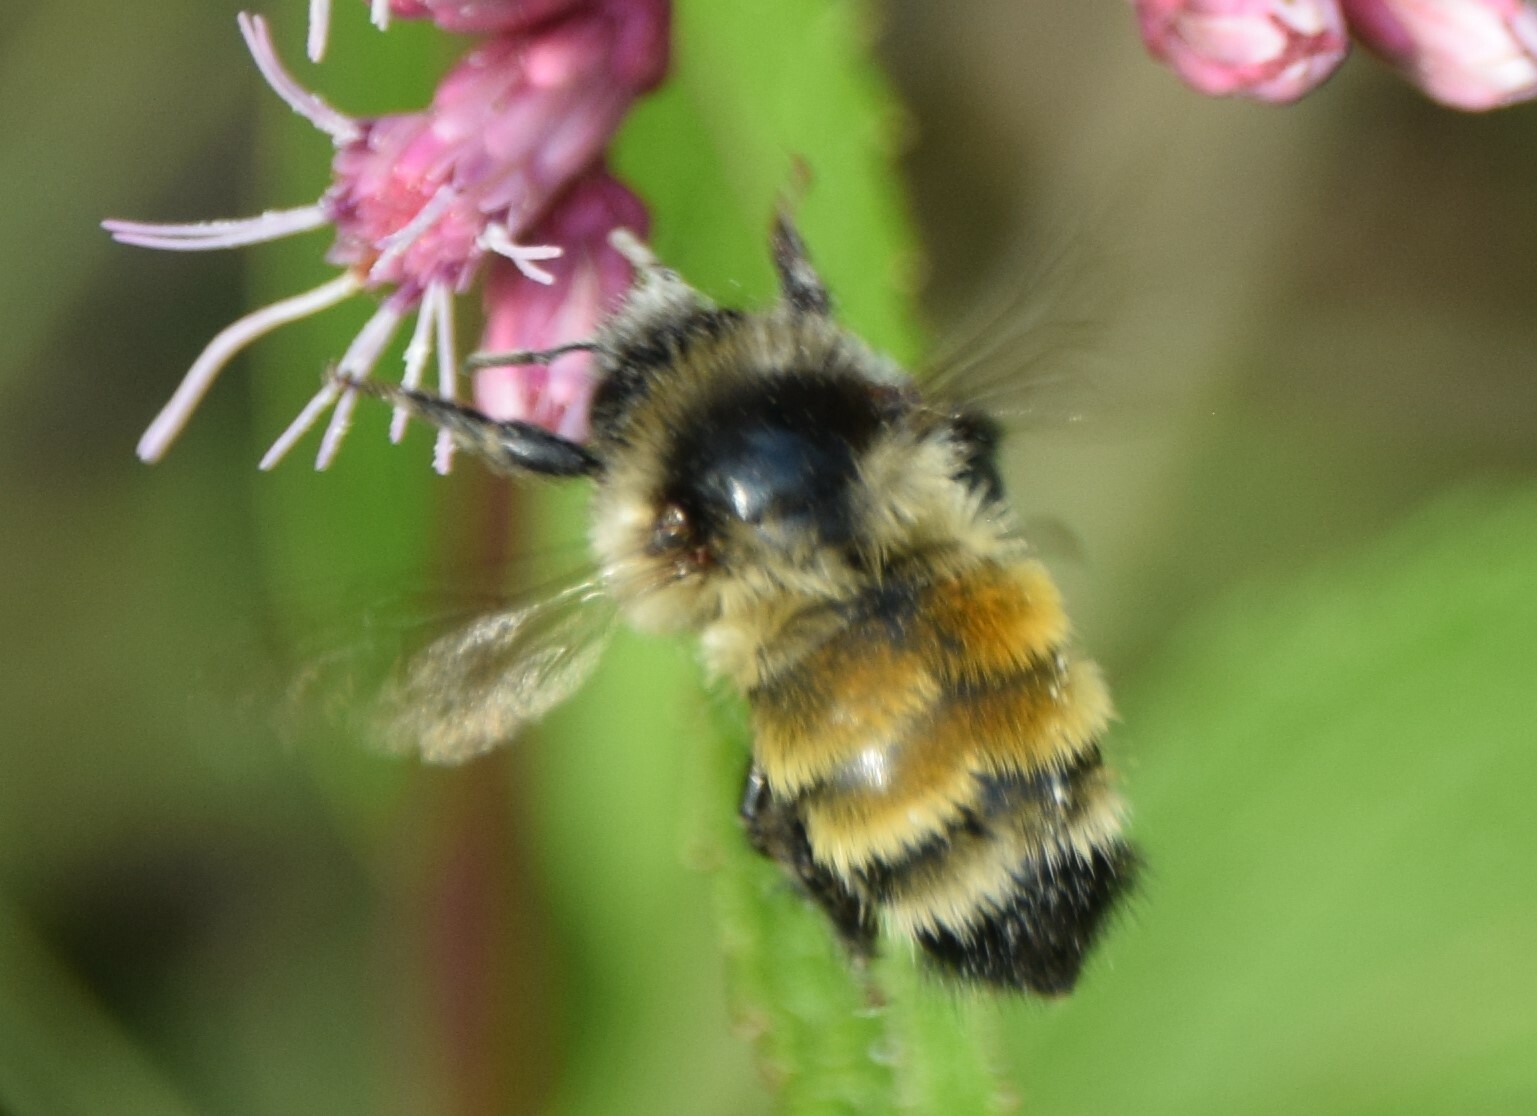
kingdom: Animalia
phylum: Arthropoda
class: Insecta
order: Hymenoptera
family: Apidae
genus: Bombus
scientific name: Bombus ternarius
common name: Tri-colored bumble bee
